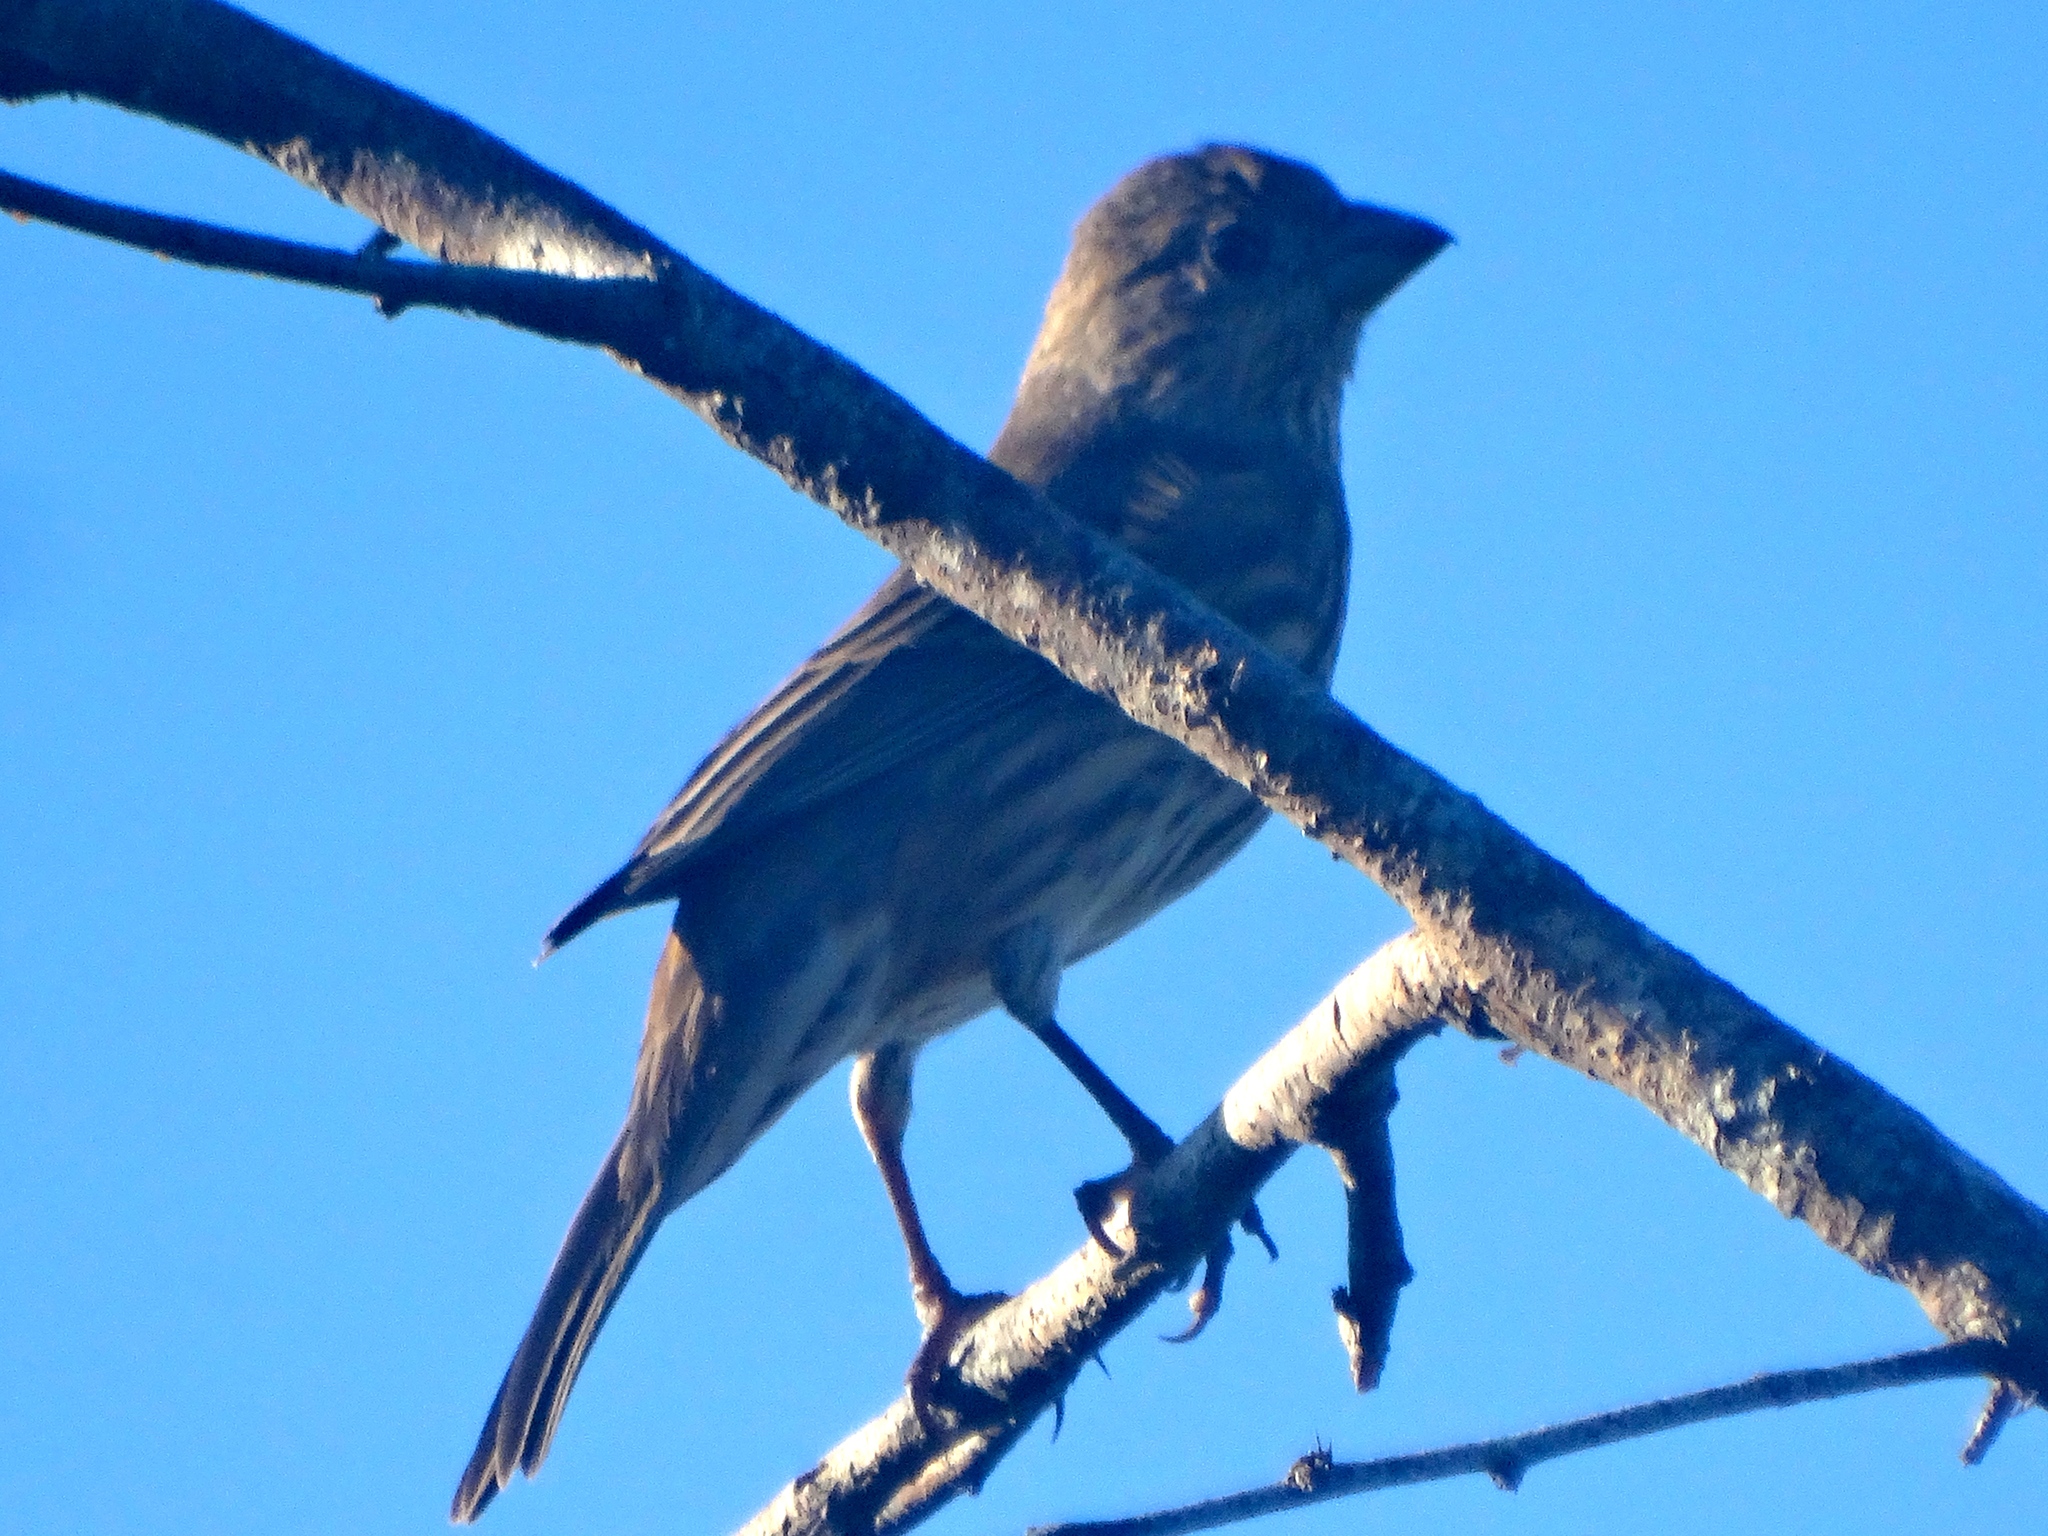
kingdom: Animalia
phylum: Chordata
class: Aves
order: Passeriformes
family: Fringillidae
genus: Haemorhous
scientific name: Haemorhous mexicanus
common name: House finch
